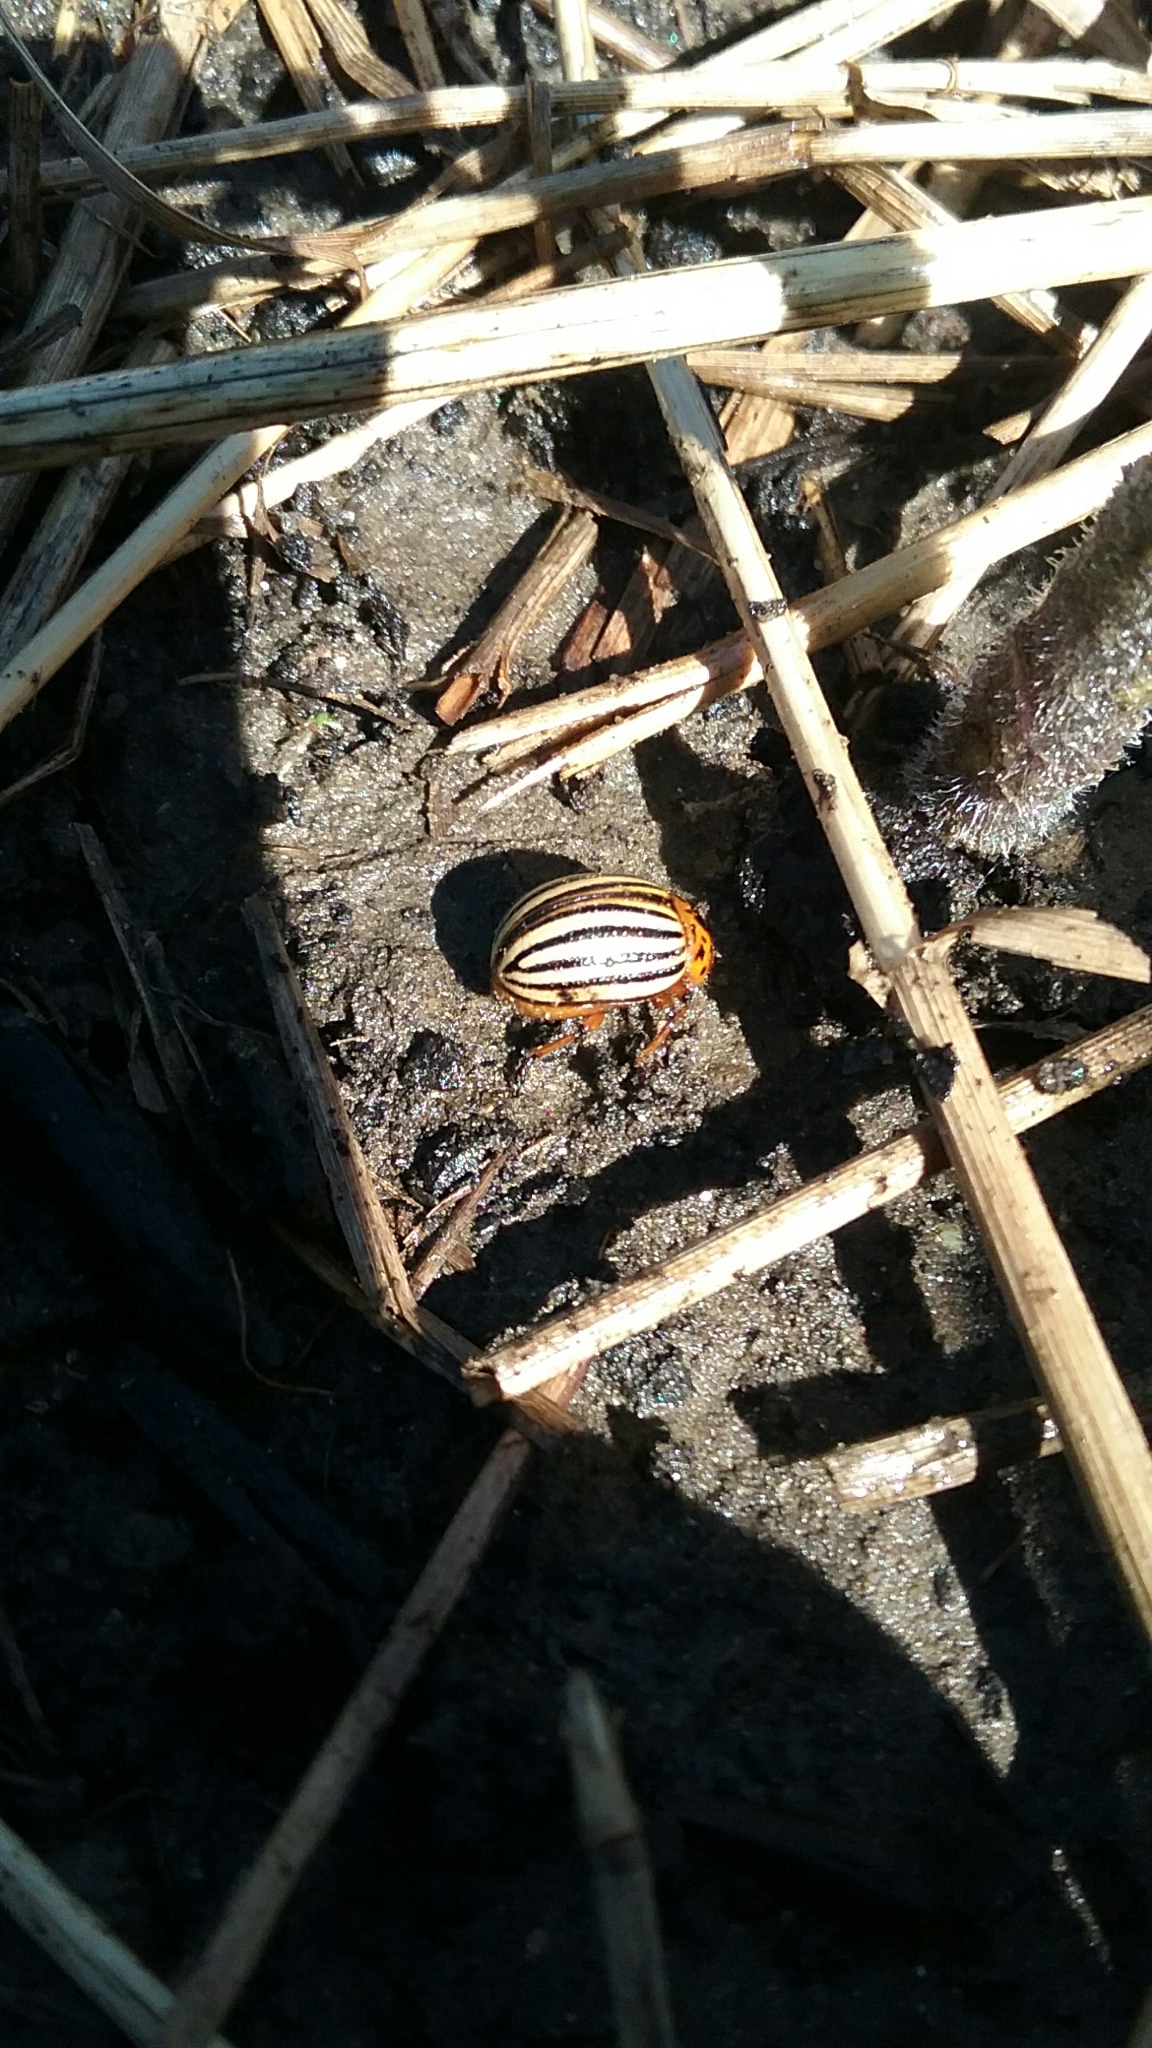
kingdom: Animalia
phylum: Arthropoda
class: Insecta
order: Coleoptera
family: Chrysomelidae
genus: Leptinotarsa
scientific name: Leptinotarsa decemlineata
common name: Colorado potato beetle
